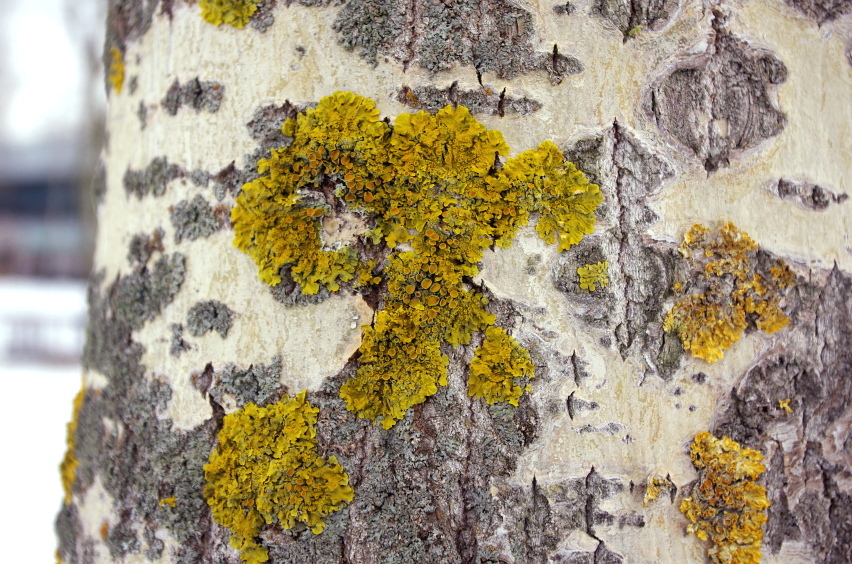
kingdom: Fungi
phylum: Ascomycota
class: Lecanoromycetes
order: Teloschistales
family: Teloschistaceae
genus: Xanthoria
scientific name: Xanthoria parietina
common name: Common orange lichen
